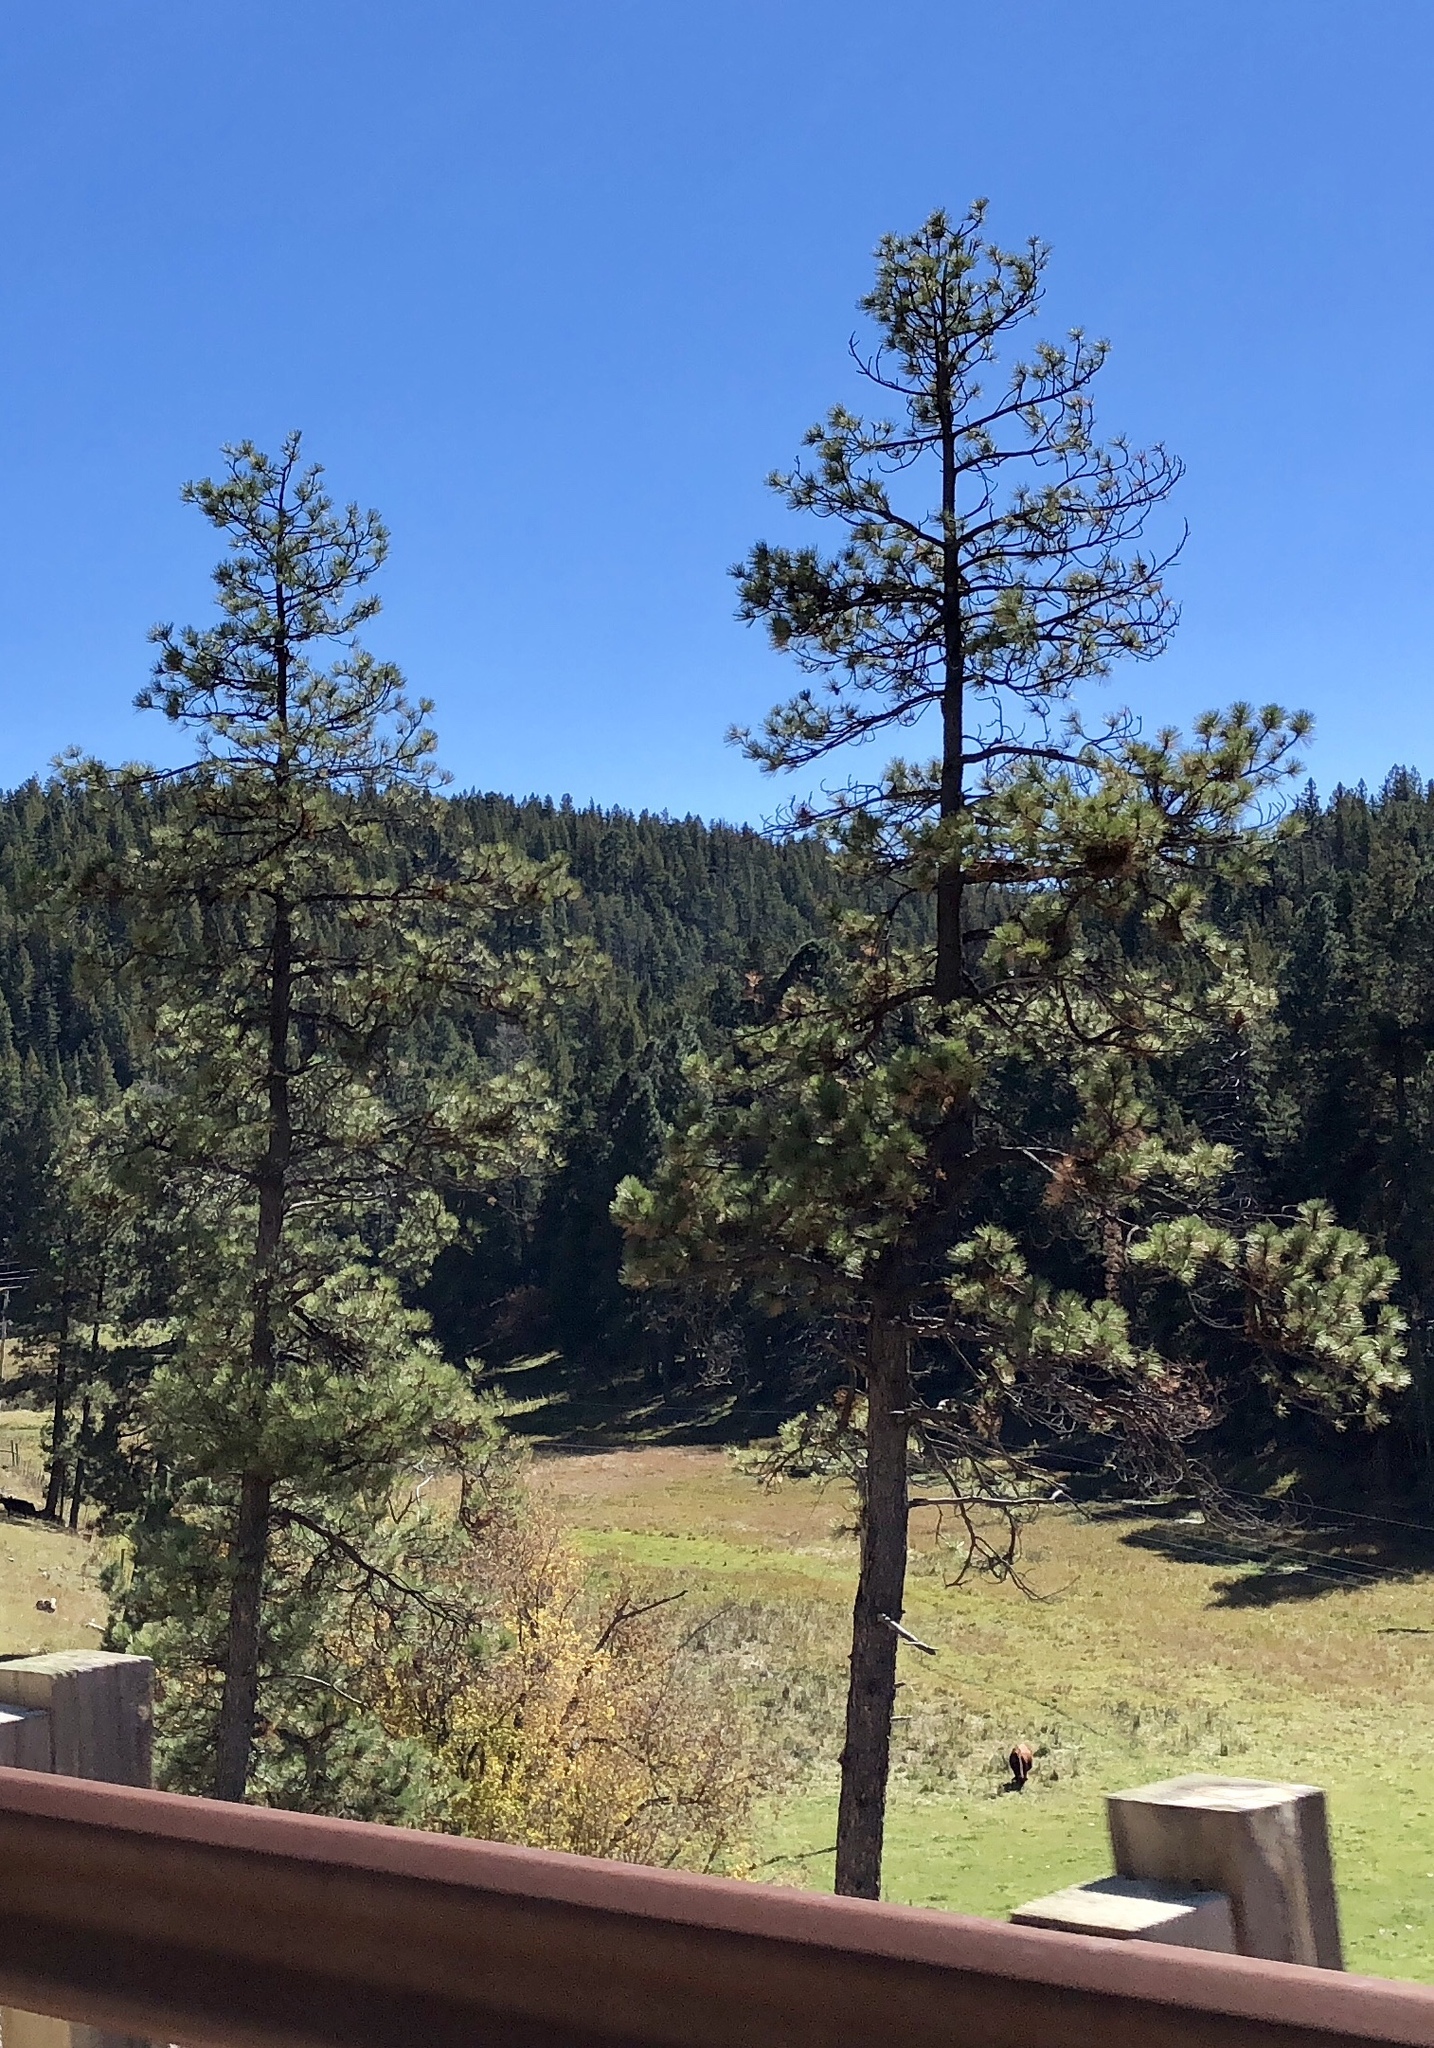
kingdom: Plantae
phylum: Tracheophyta
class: Pinopsida
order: Pinales
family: Pinaceae
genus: Pinus
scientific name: Pinus ponderosa
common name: Western yellow-pine
